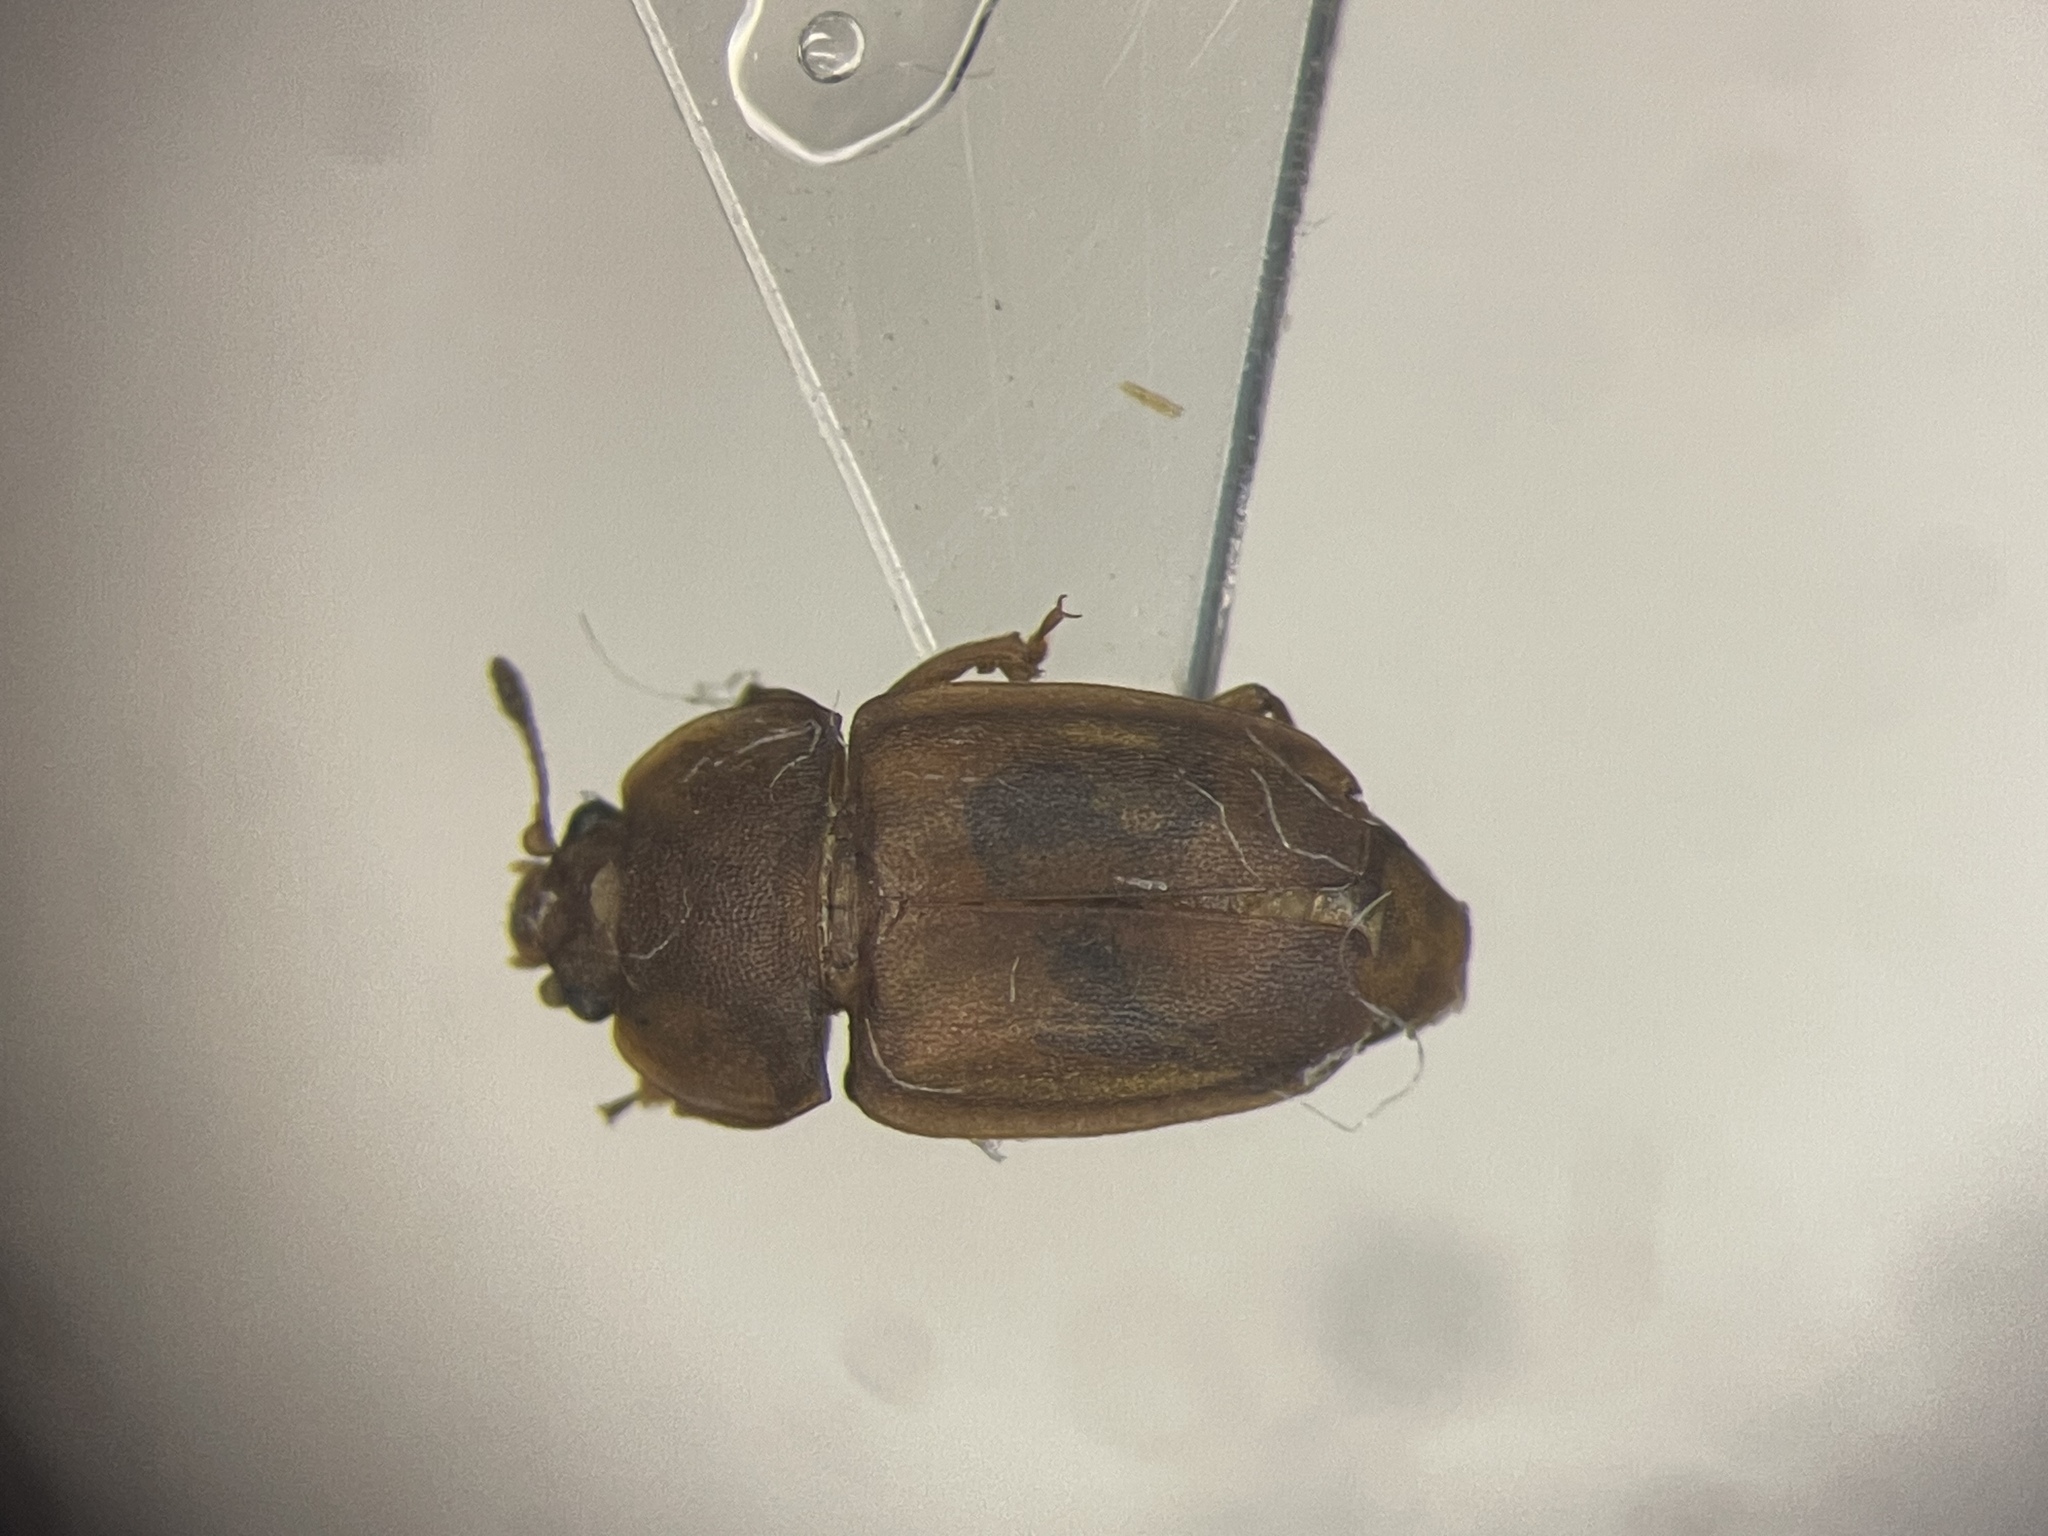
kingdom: Animalia
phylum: Arthropoda
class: Insecta
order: Coleoptera
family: Nitidulidae
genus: Epuraea
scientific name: Epuraea alternata
